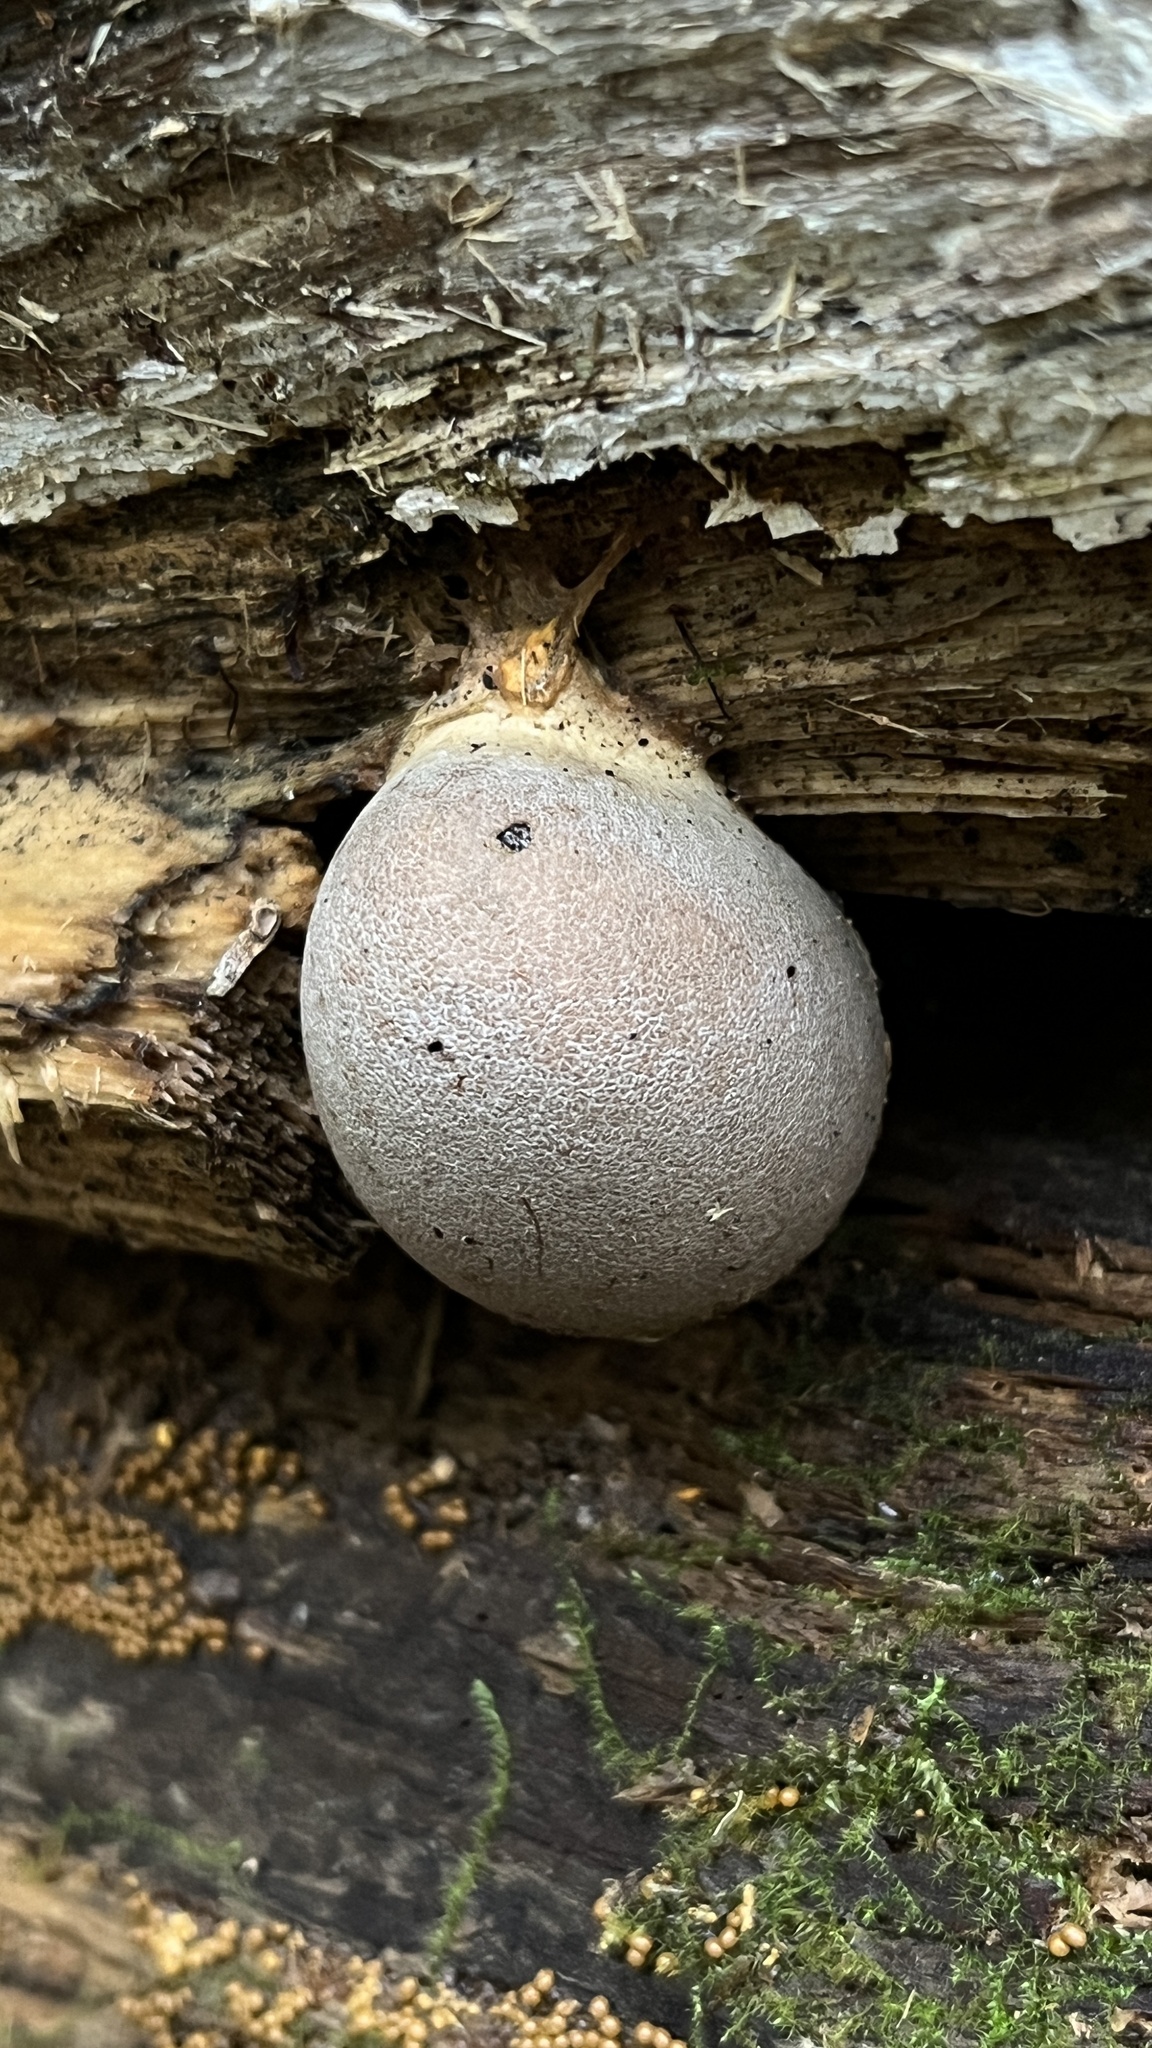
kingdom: Protozoa
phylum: Mycetozoa
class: Myxomycetes
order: Cribrariales
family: Tubiferaceae
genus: Lycogala
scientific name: Lycogala flavofuscum
